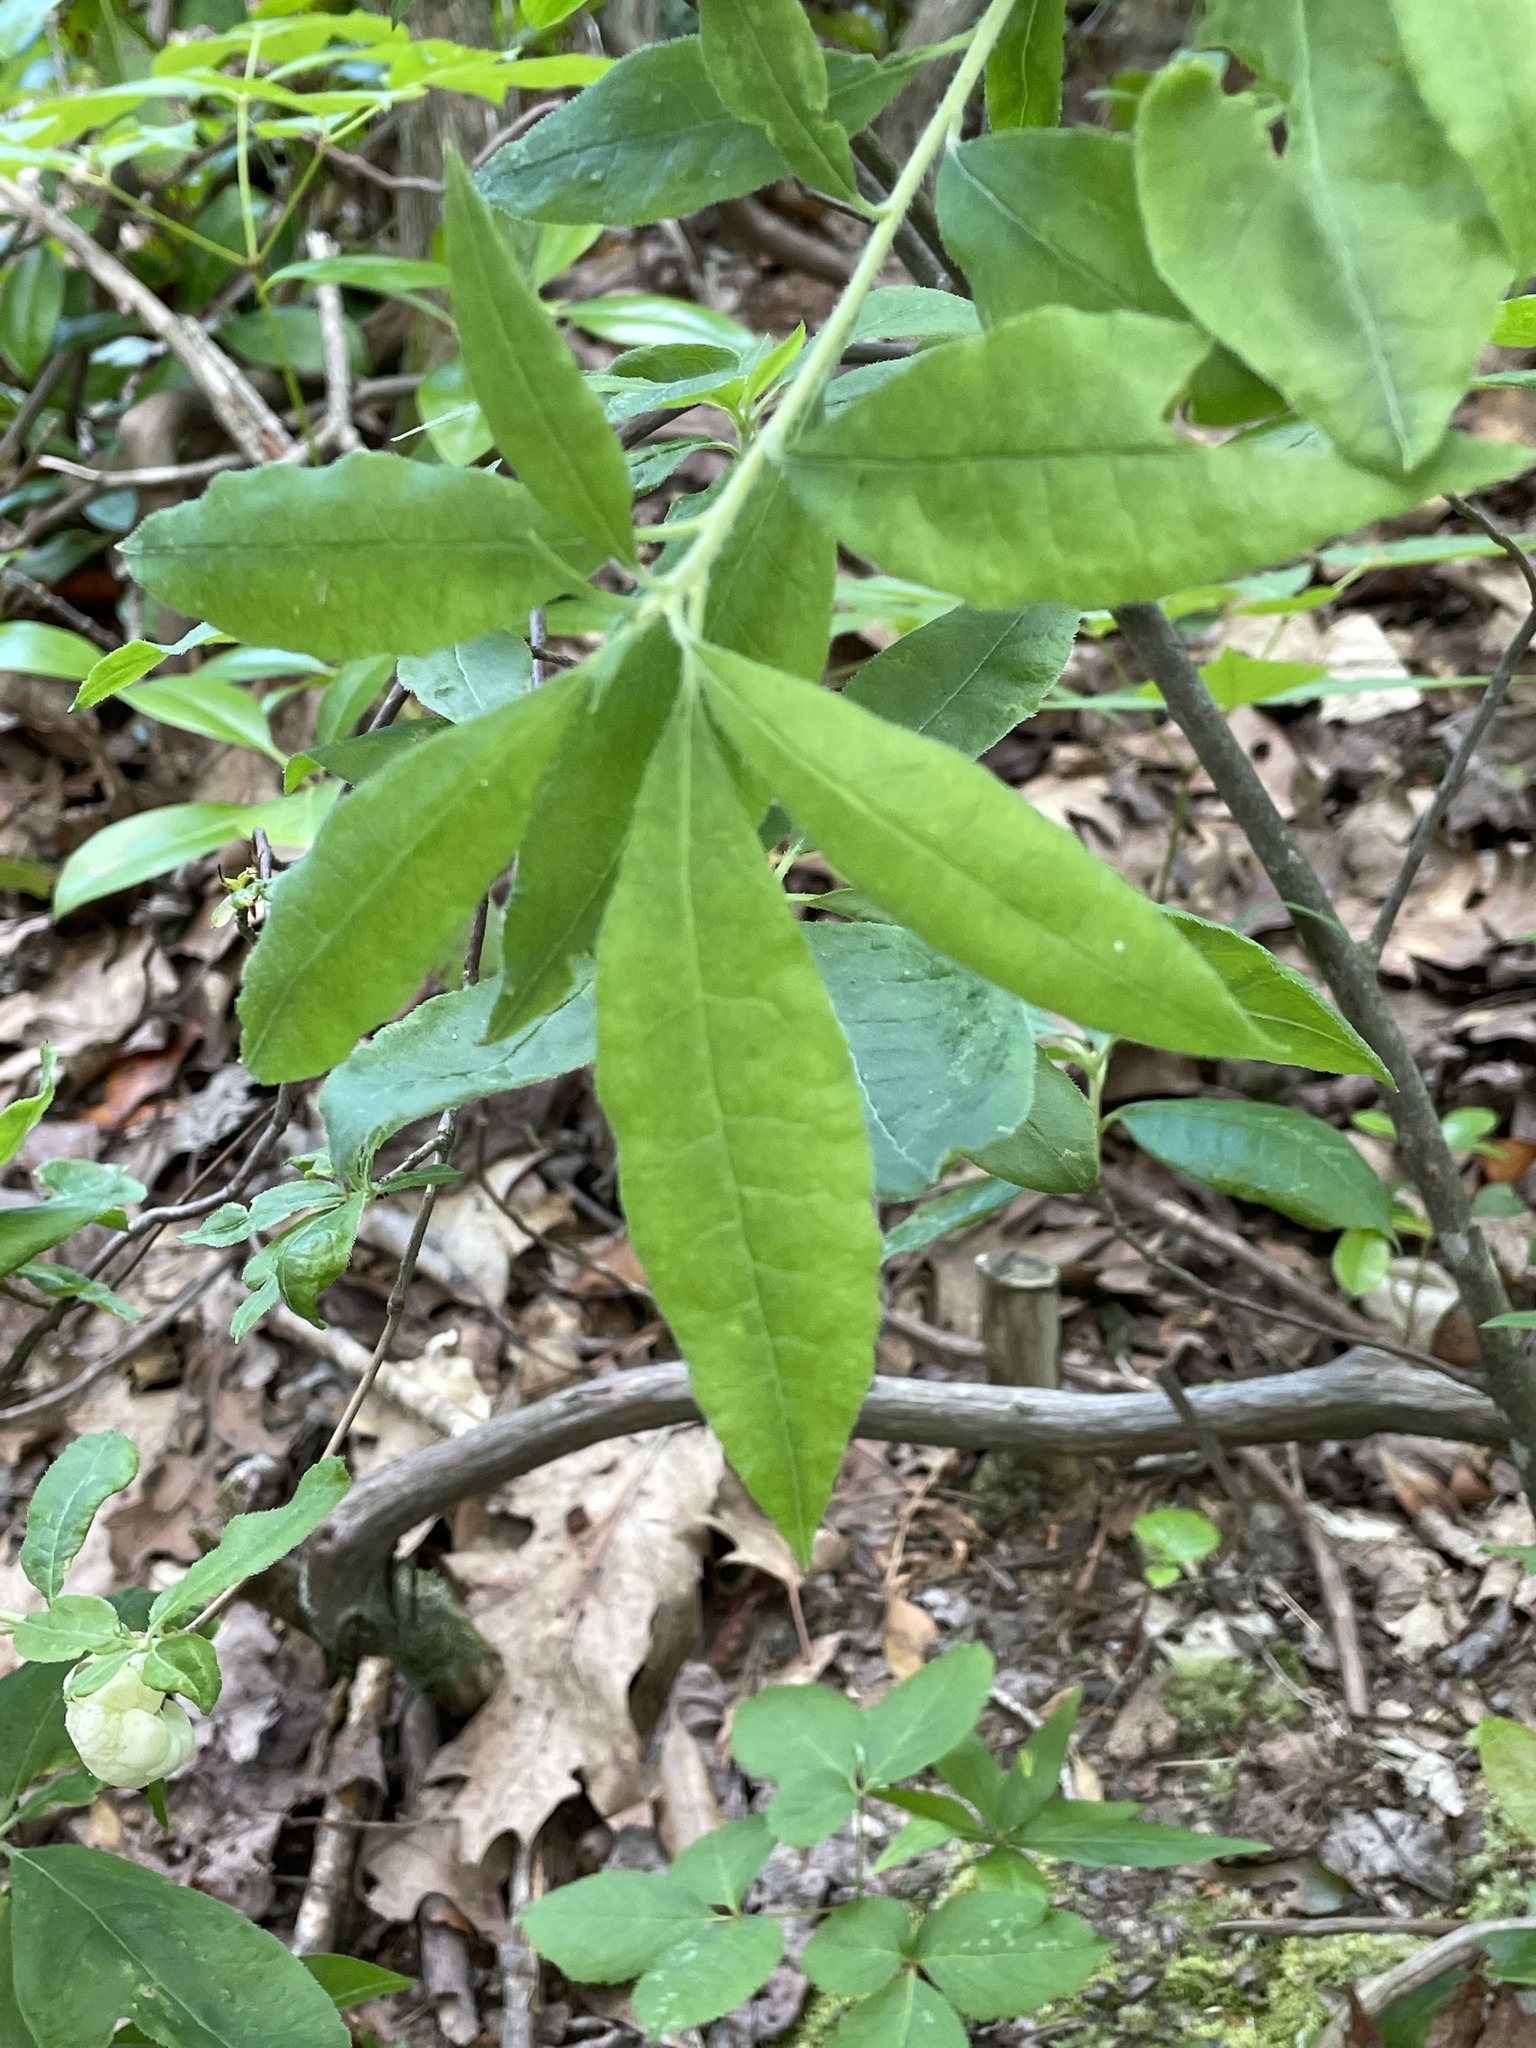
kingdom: Fungi
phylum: Basidiomycota
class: Exobasidiomycetes
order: Exobasidiales
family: Exobasidiaceae
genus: Exobasidium
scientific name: Exobasidium vaccinii
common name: Cowberry redleaf
